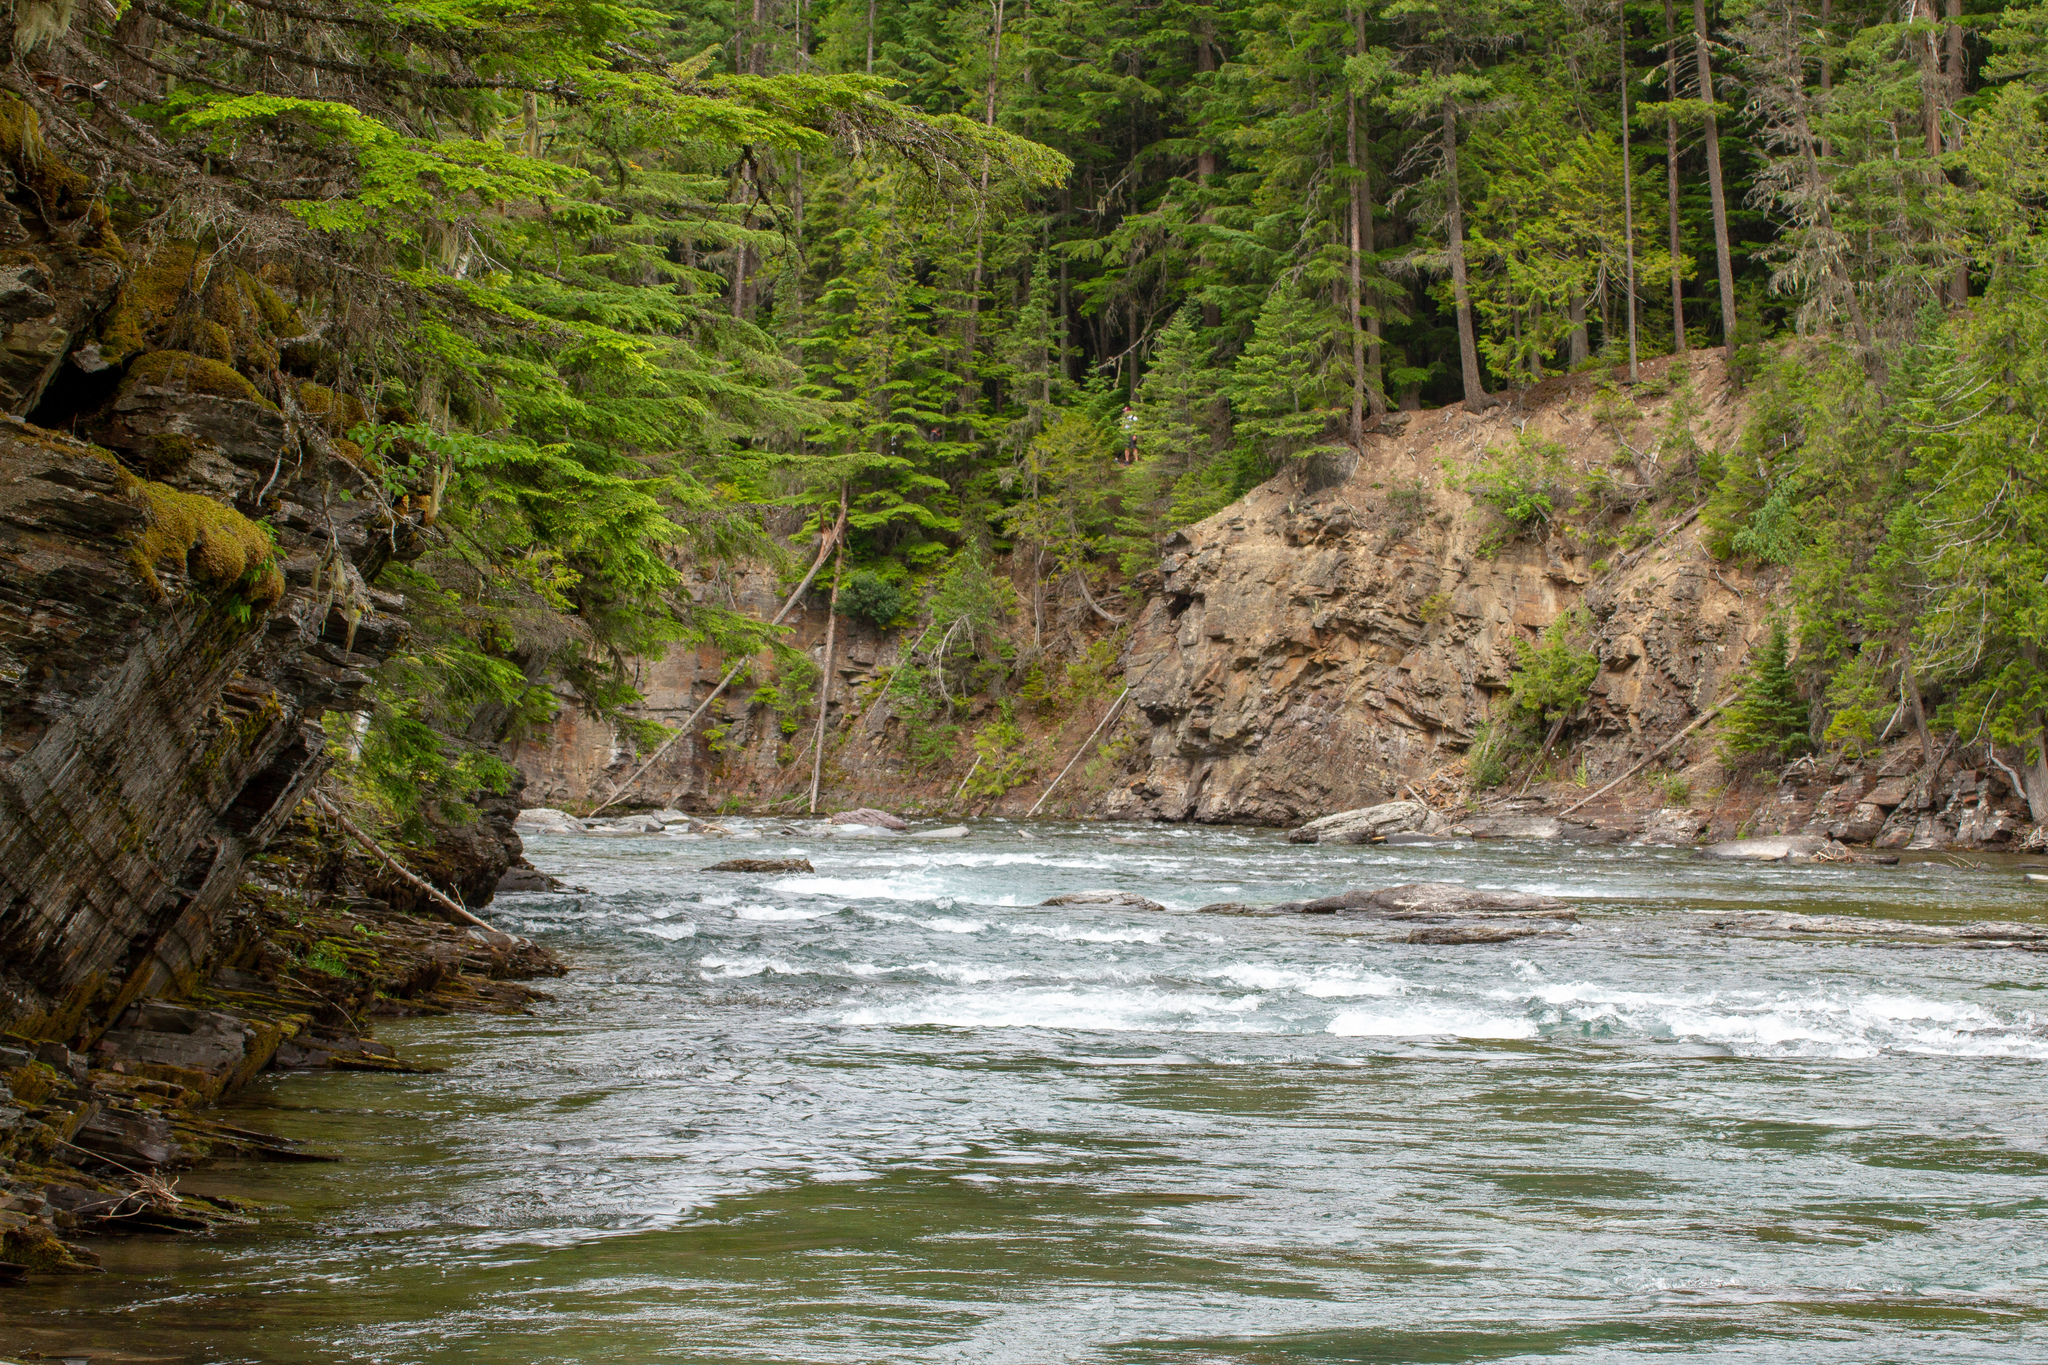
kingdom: Animalia
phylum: Chordata
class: Aves
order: Anseriformes
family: Anatidae
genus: Histrionicus
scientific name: Histrionicus histrionicus
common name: Harlequin duck
